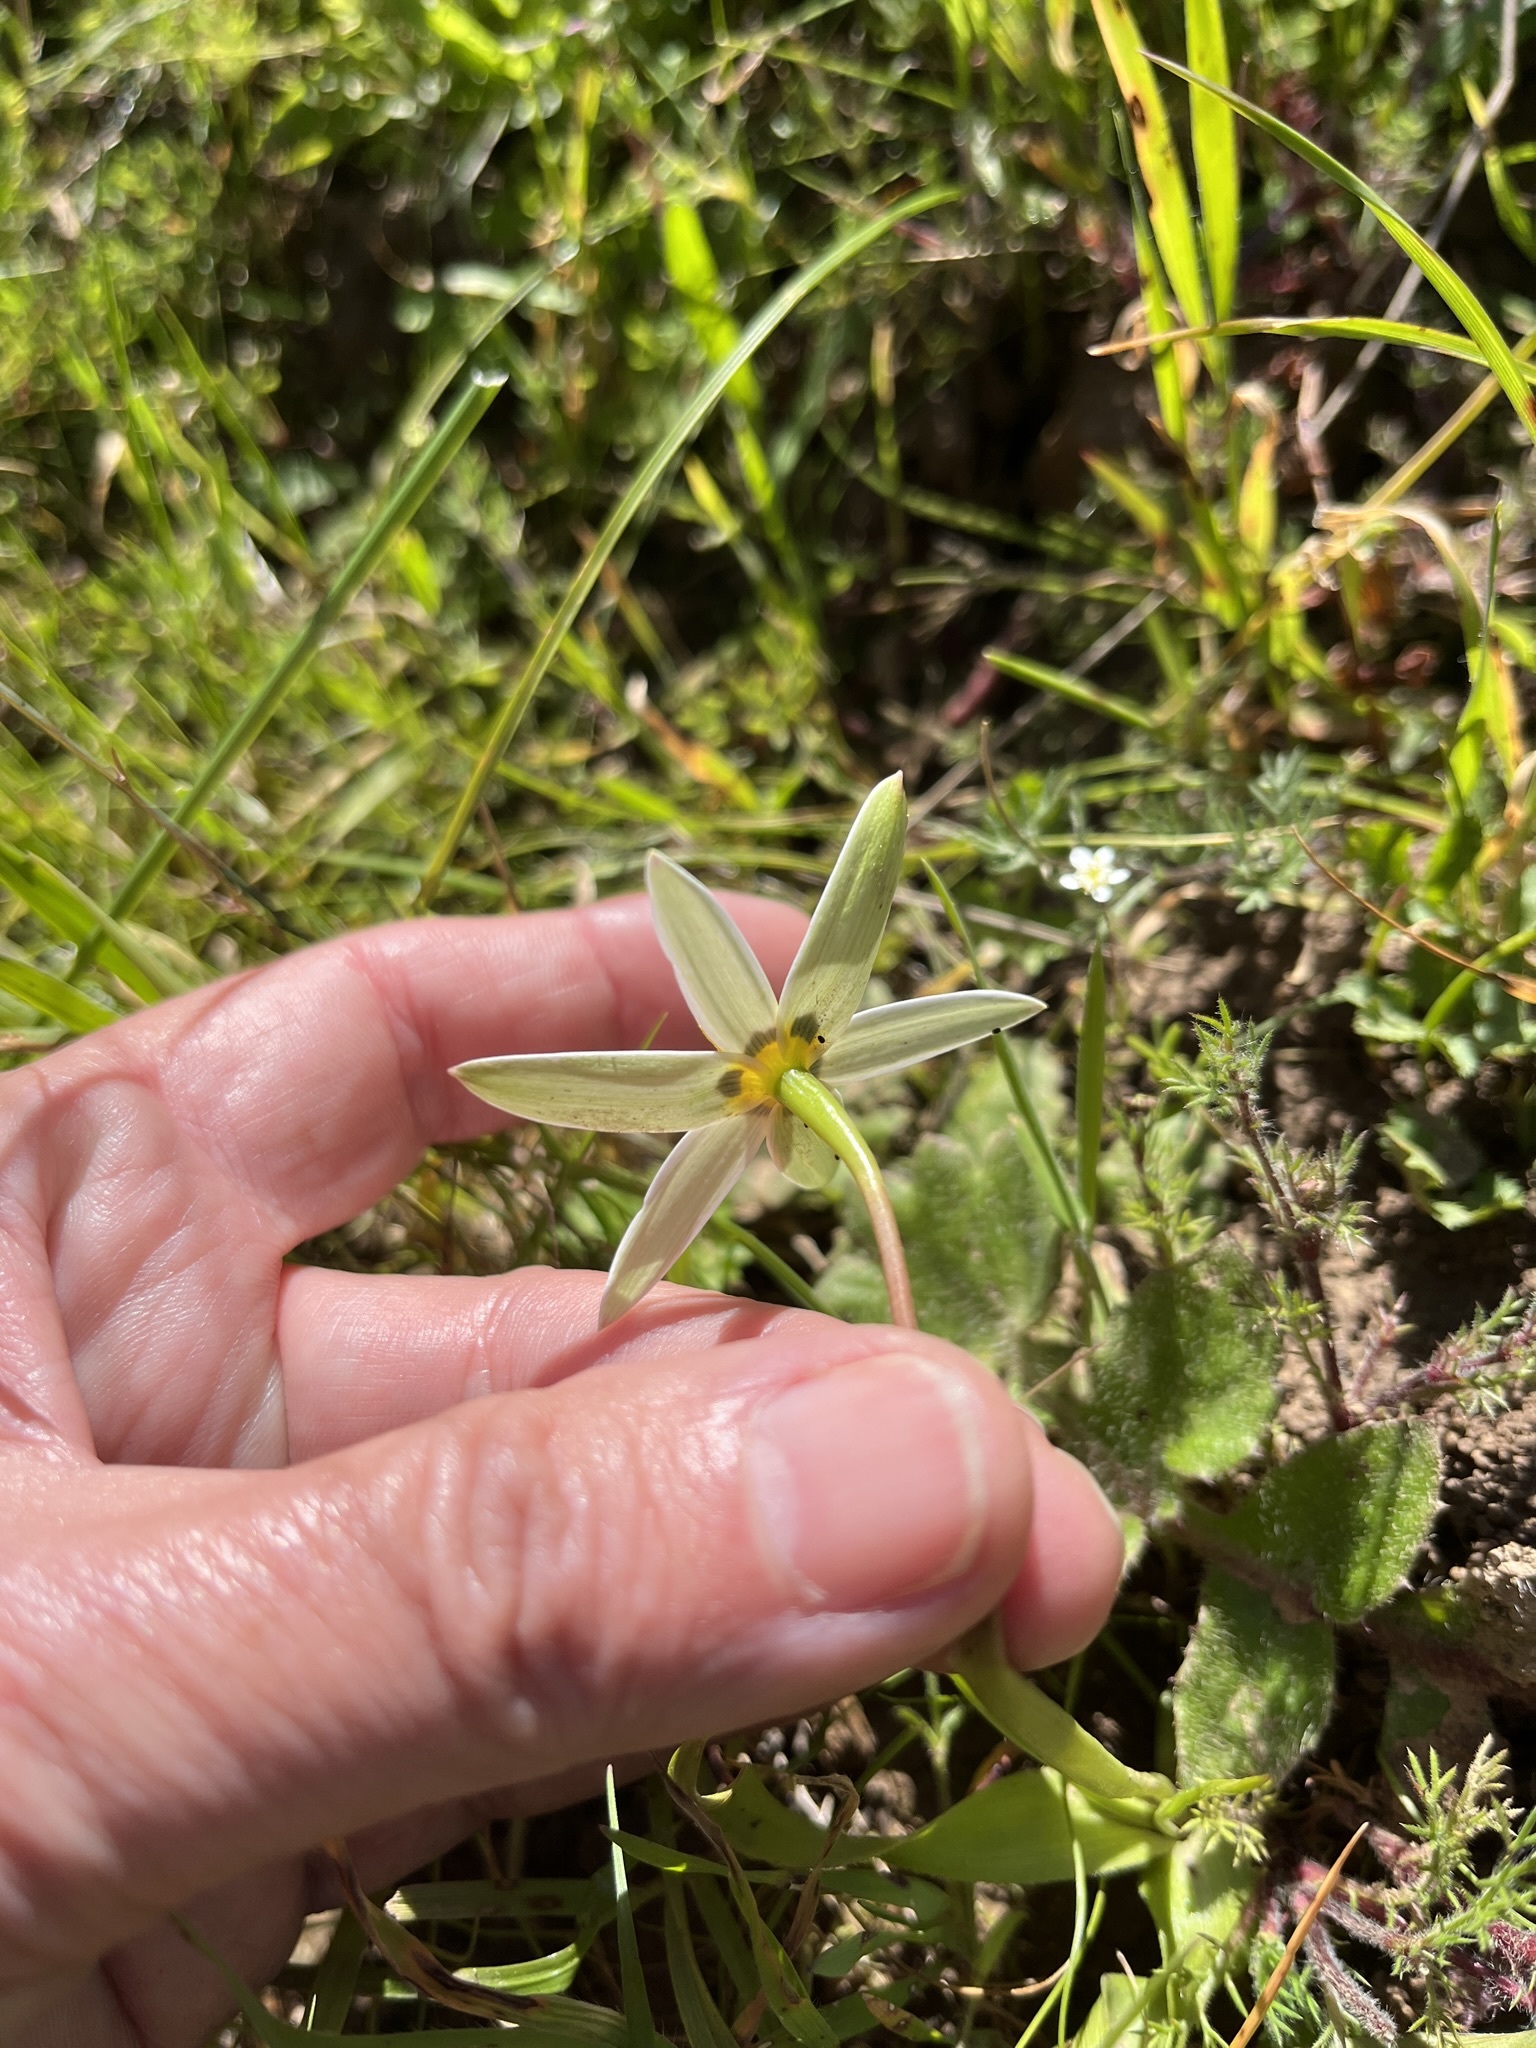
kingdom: Plantae
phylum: Tracheophyta
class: Liliopsida
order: Asparagales
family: Hypoxidaceae
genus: Pauridia
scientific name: Pauridia capensis
